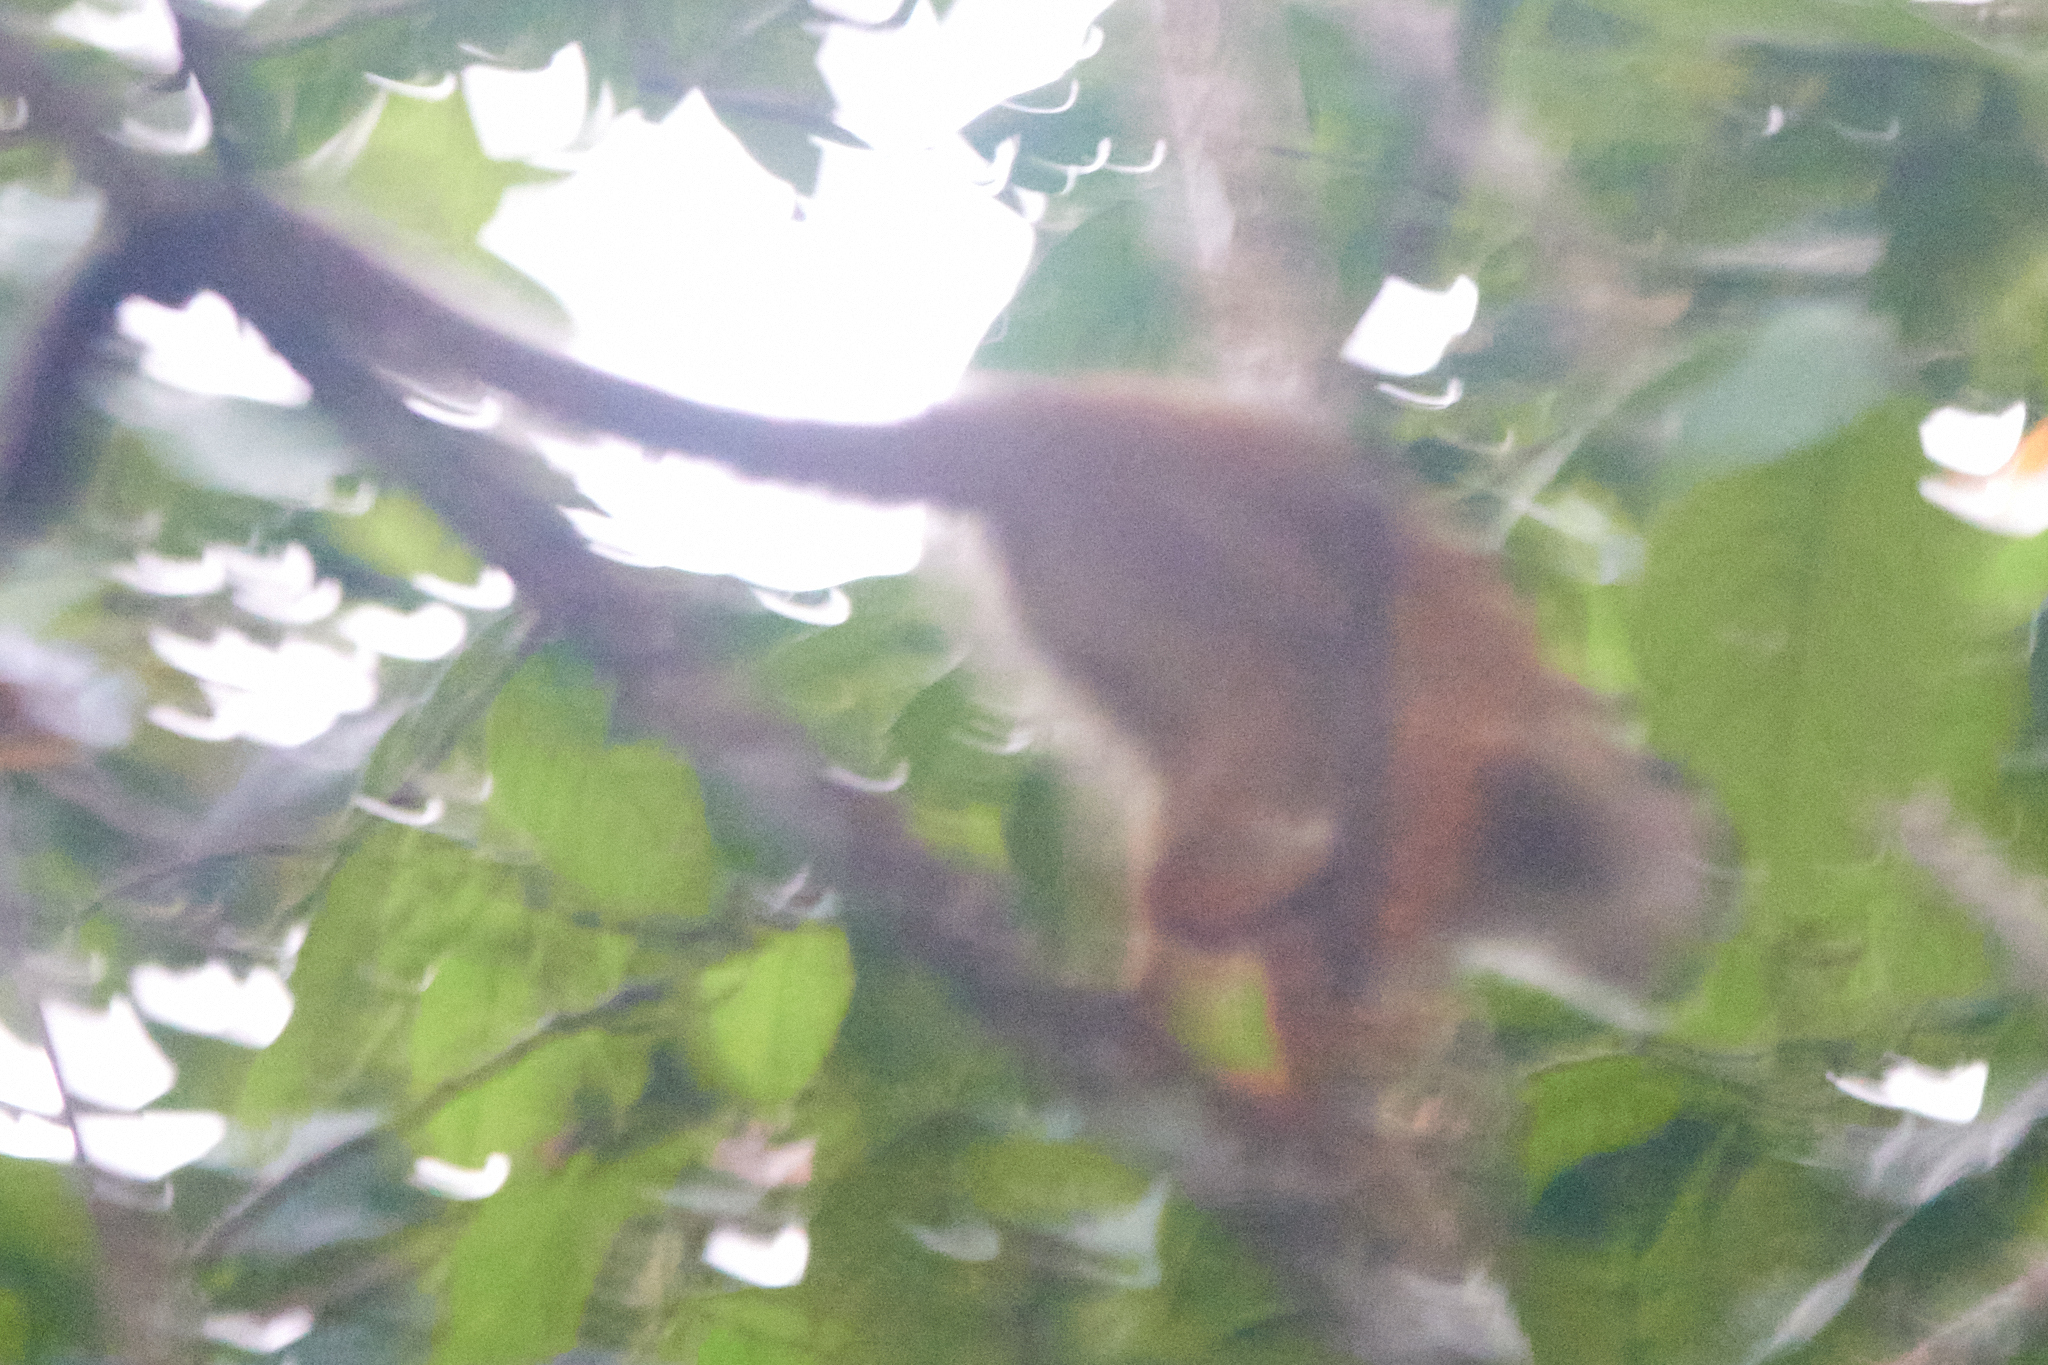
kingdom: Animalia
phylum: Chordata
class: Mammalia
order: Primates
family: Cebidae
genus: Saimiri
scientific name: Saimiri oerstedii
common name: Central american squirrel monkey
